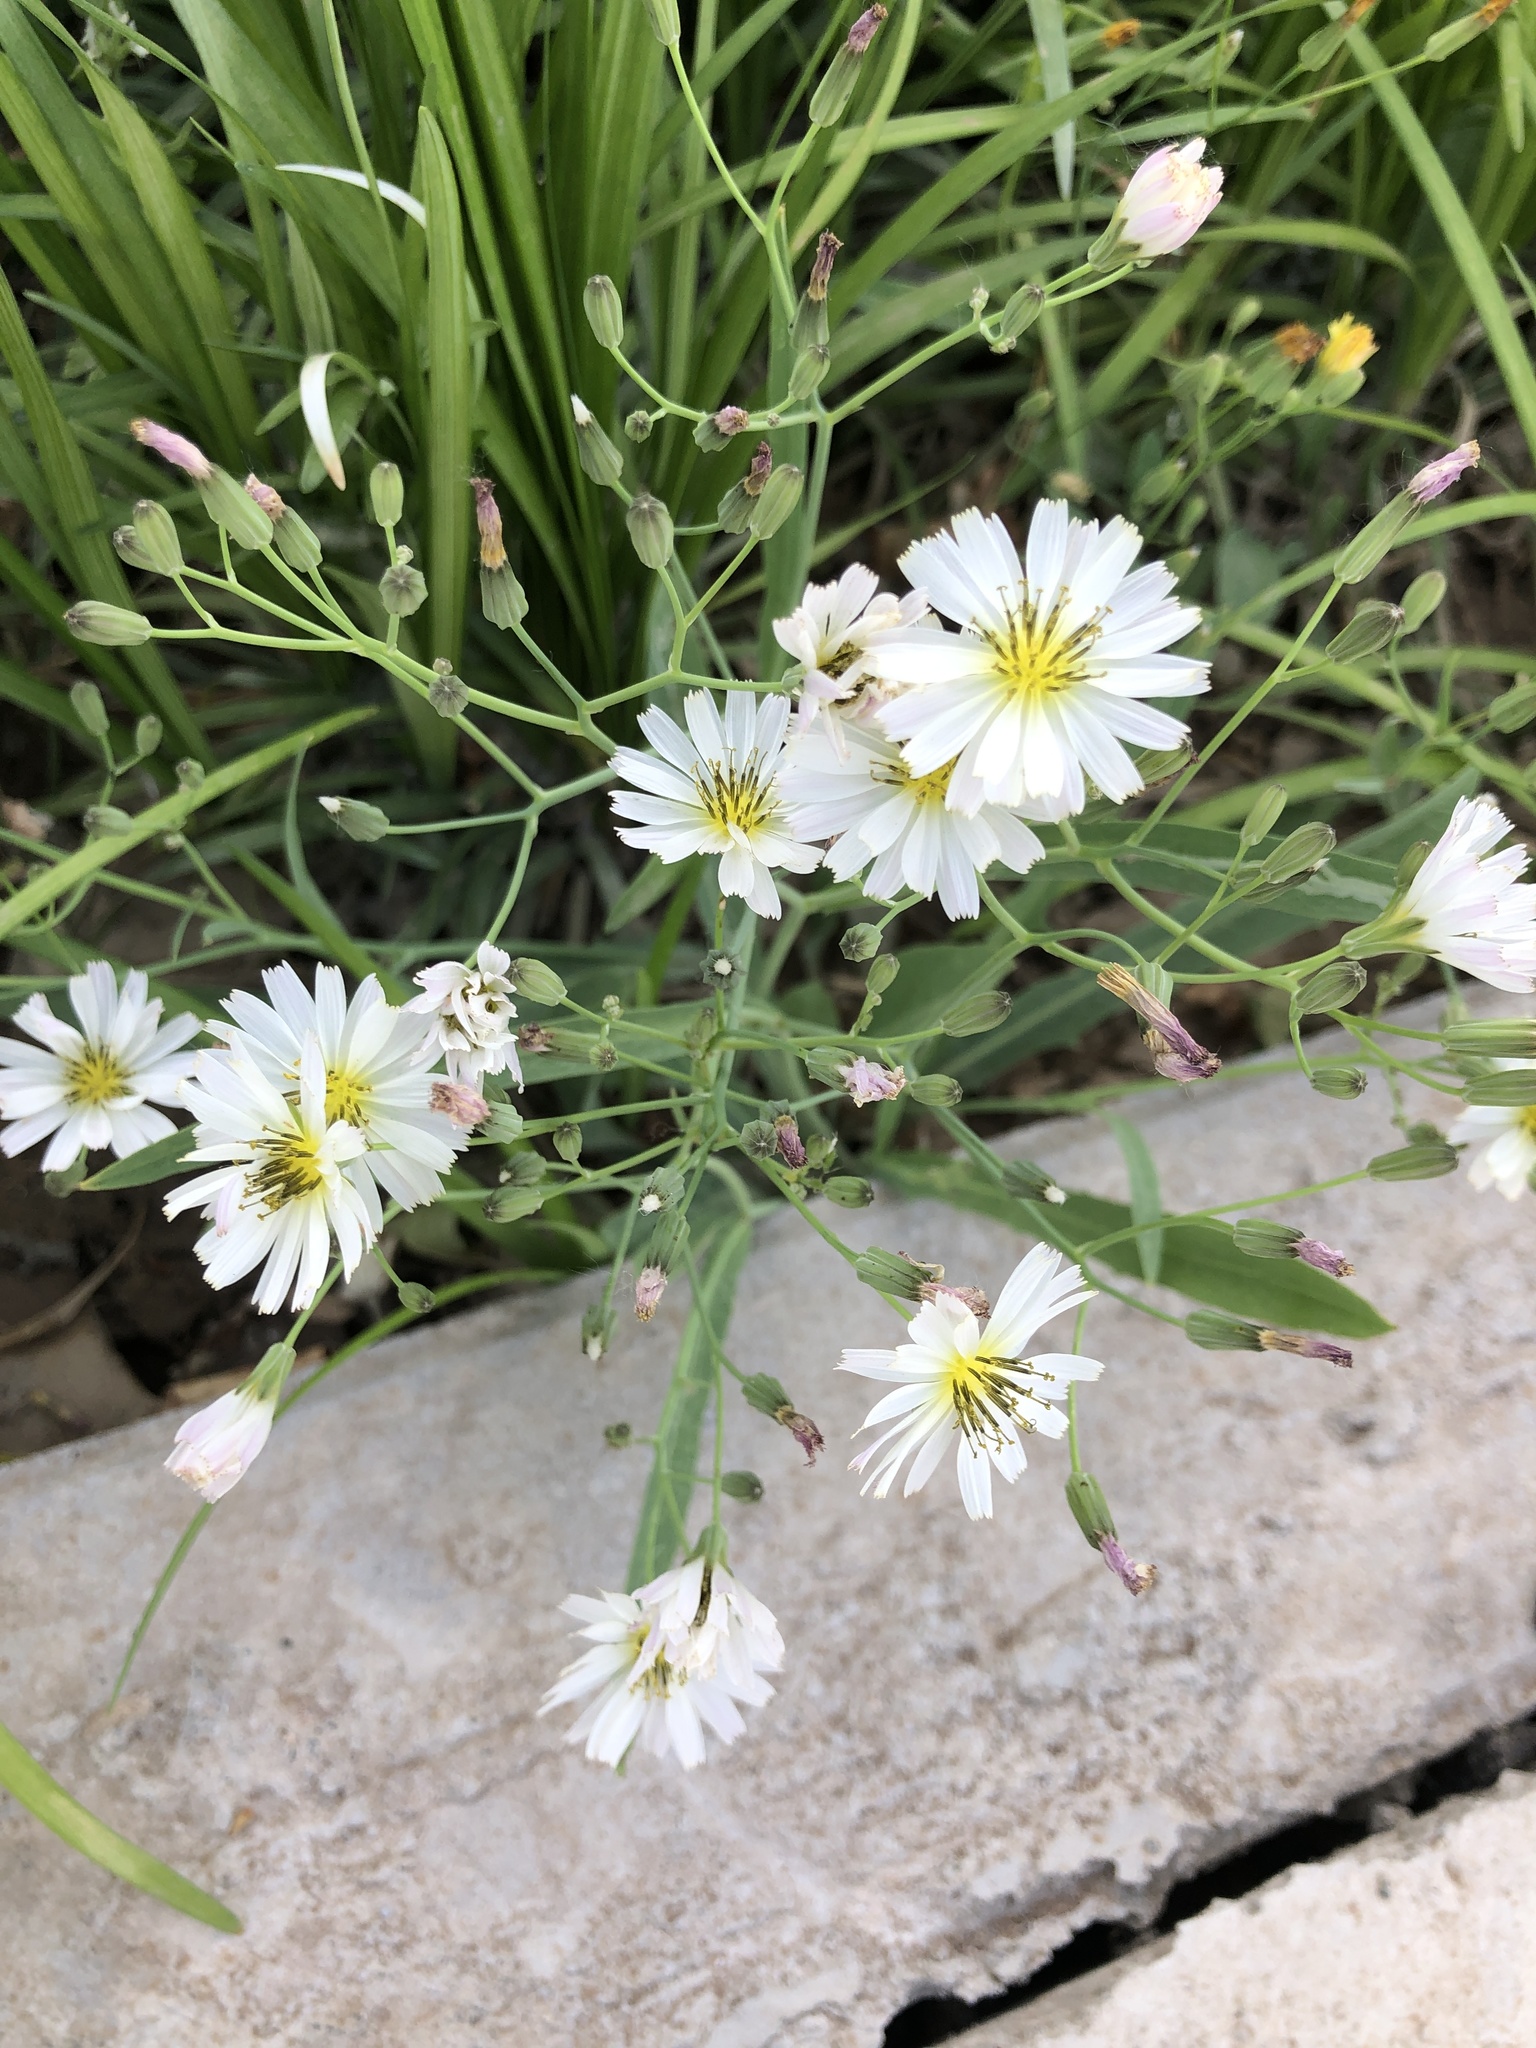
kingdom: Plantae
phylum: Tracheophyta
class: Magnoliopsida
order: Asterales
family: Asteraceae
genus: Ixeris
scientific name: Ixeris chinensis
